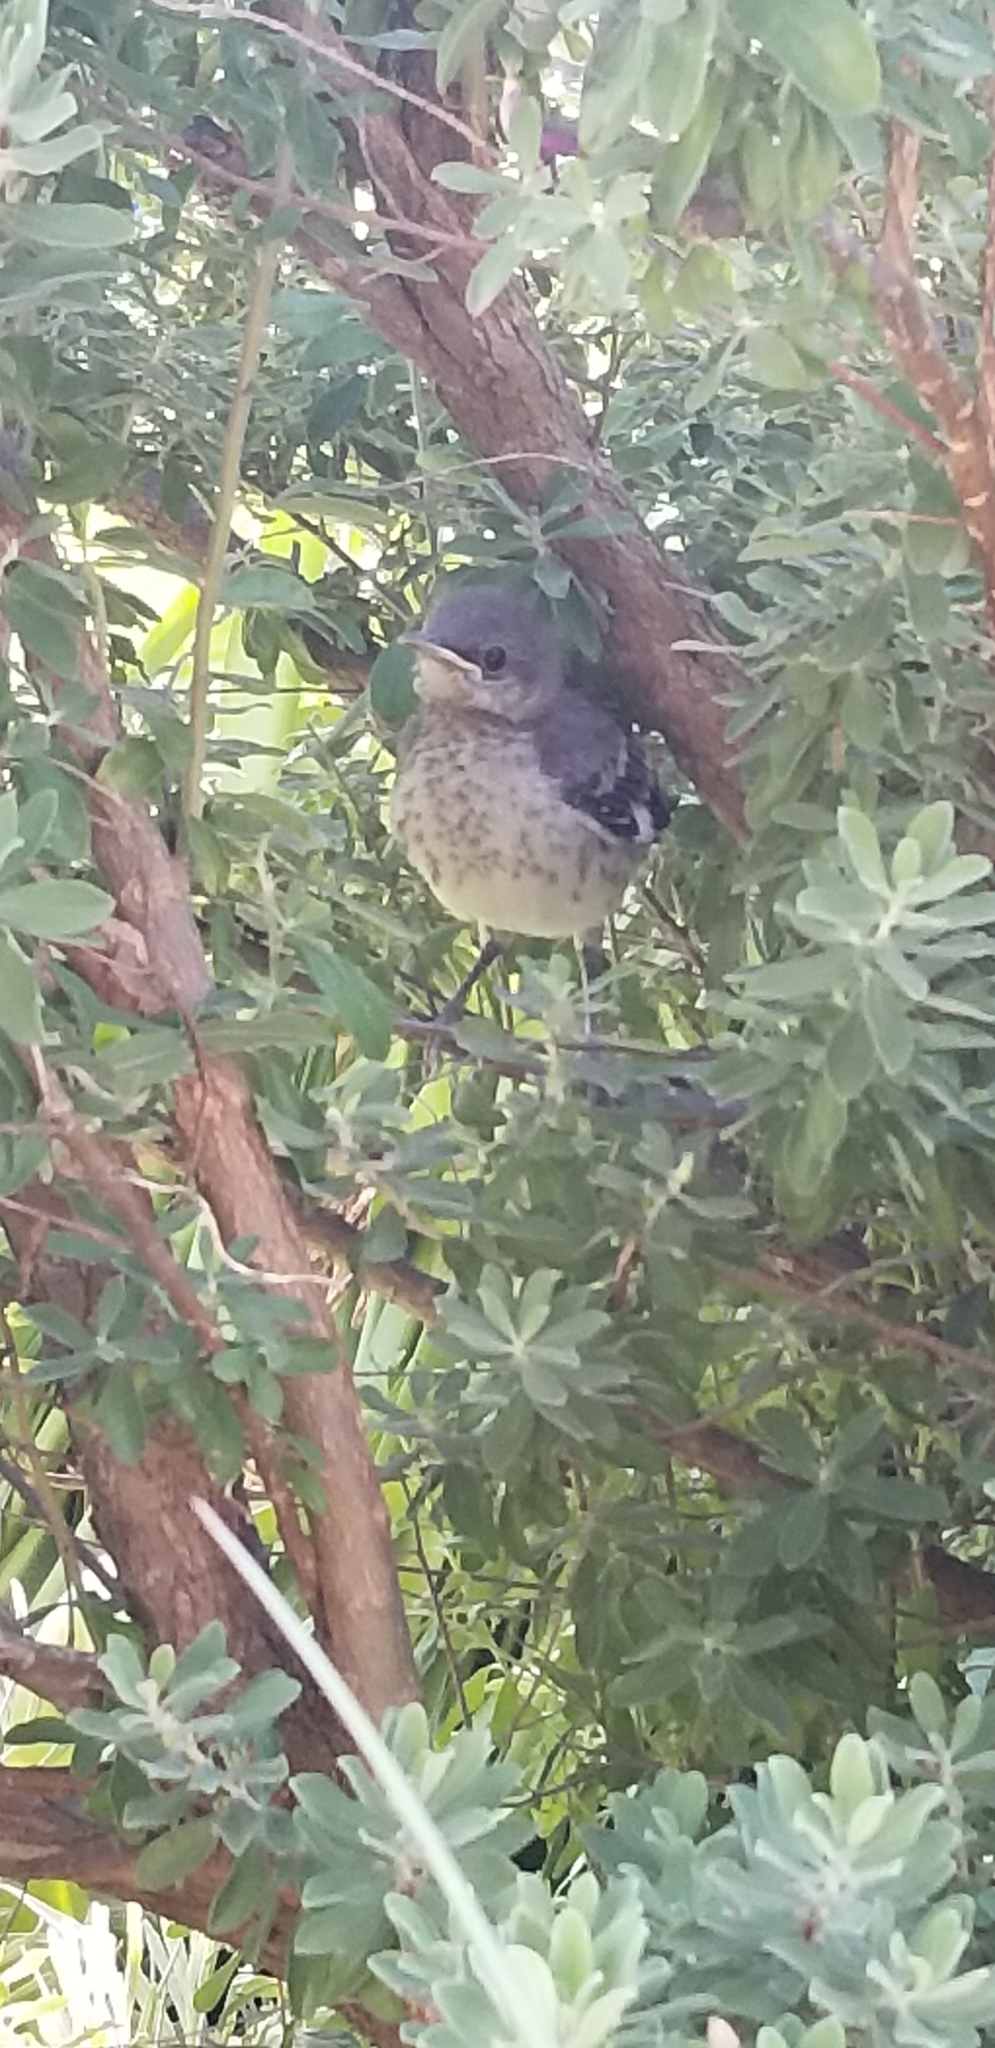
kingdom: Animalia
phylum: Chordata
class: Aves
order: Passeriformes
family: Mimidae
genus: Mimus
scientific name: Mimus polyglottos
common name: Northern mockingbird
